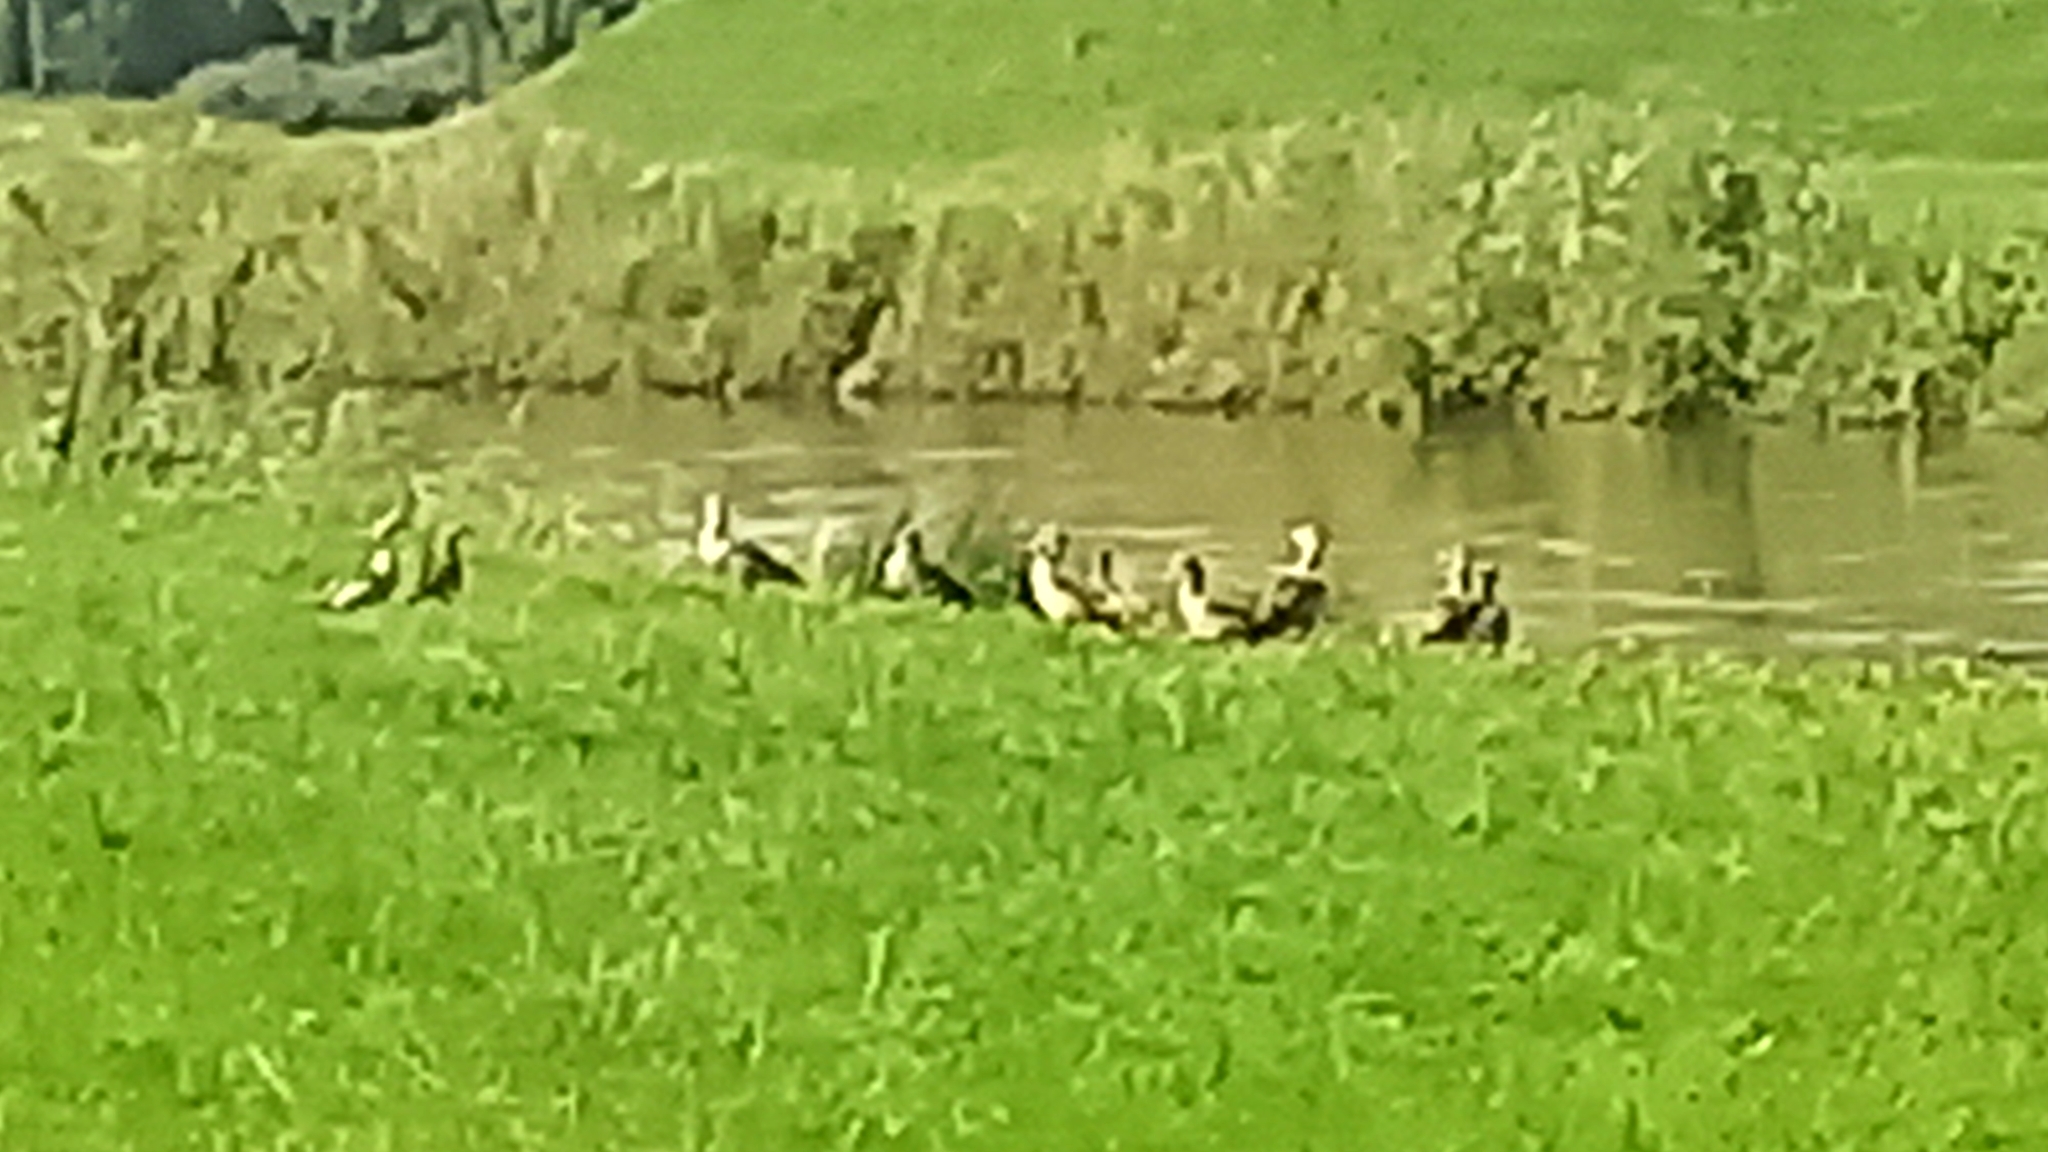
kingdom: Animalia
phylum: Chordata
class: Aves
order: Anseriformes
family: Anatidae
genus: Alopochen
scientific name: Alopochen aegyptiaca
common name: Egyptian goose
